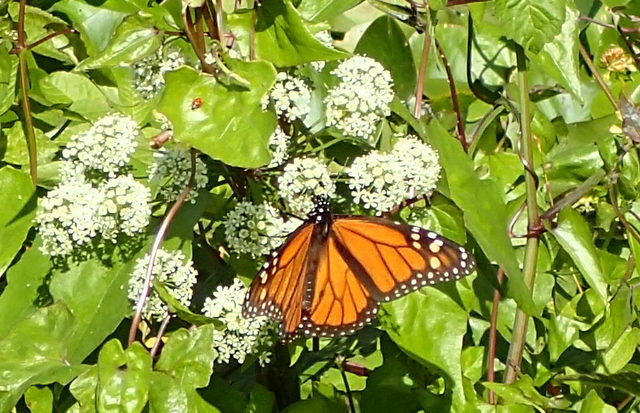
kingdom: Animalia
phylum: Arthropoda
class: Insecta
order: Lepidoptera
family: Nymphalidae
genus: Danaus
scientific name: Danaus plexippus
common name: Monarch
